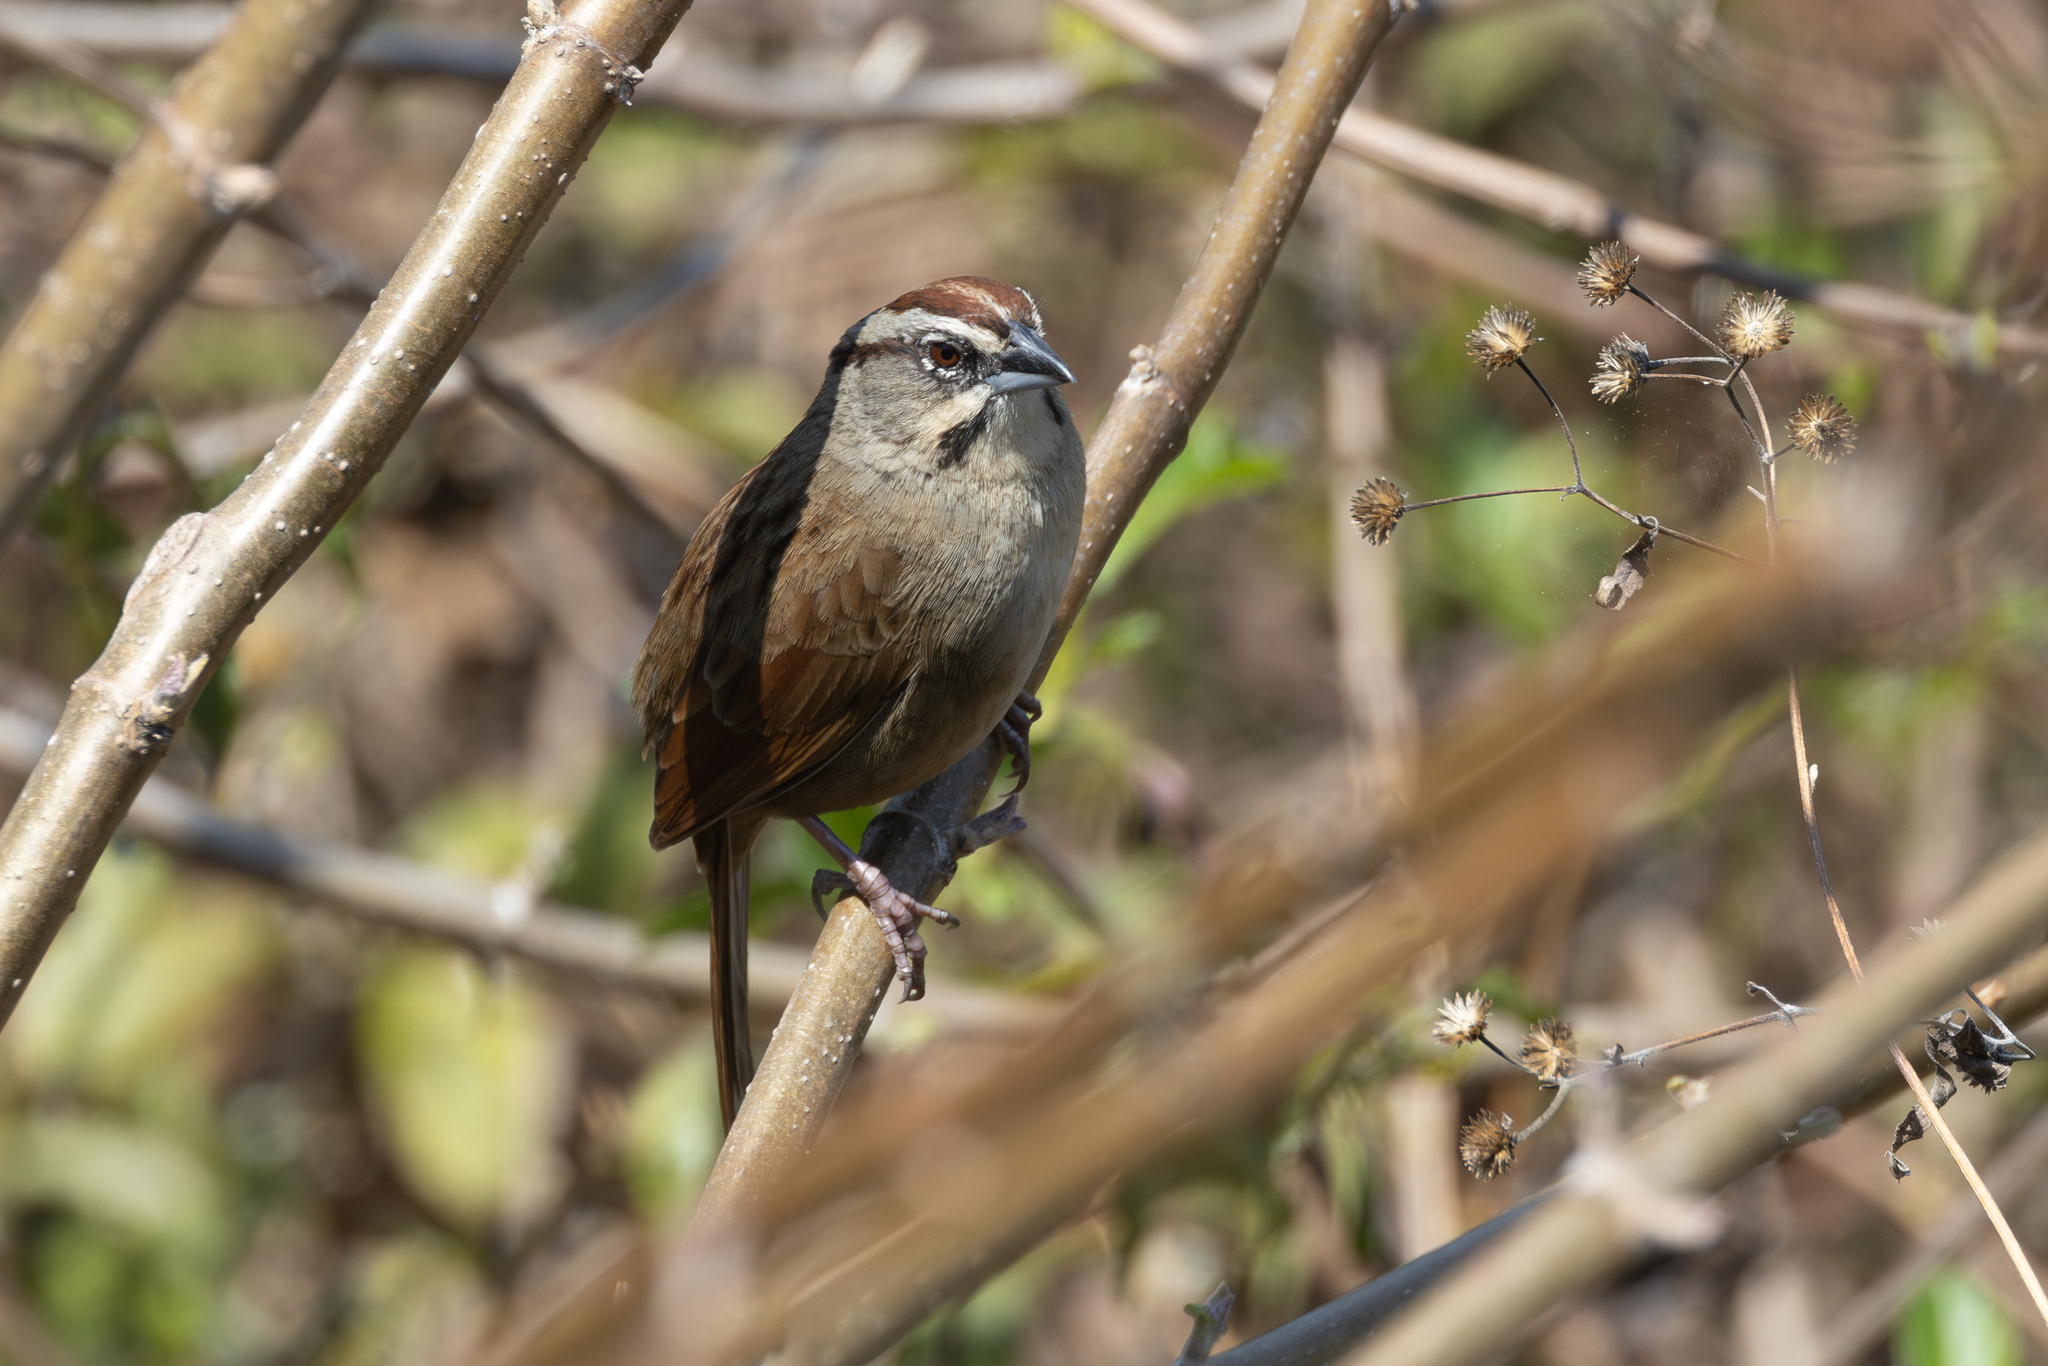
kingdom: Animalia
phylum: Chordata
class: Aves
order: Passeriformes
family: Passerellidae
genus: Aimophila
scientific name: Aimophila rufescens
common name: Rusty sparrow
